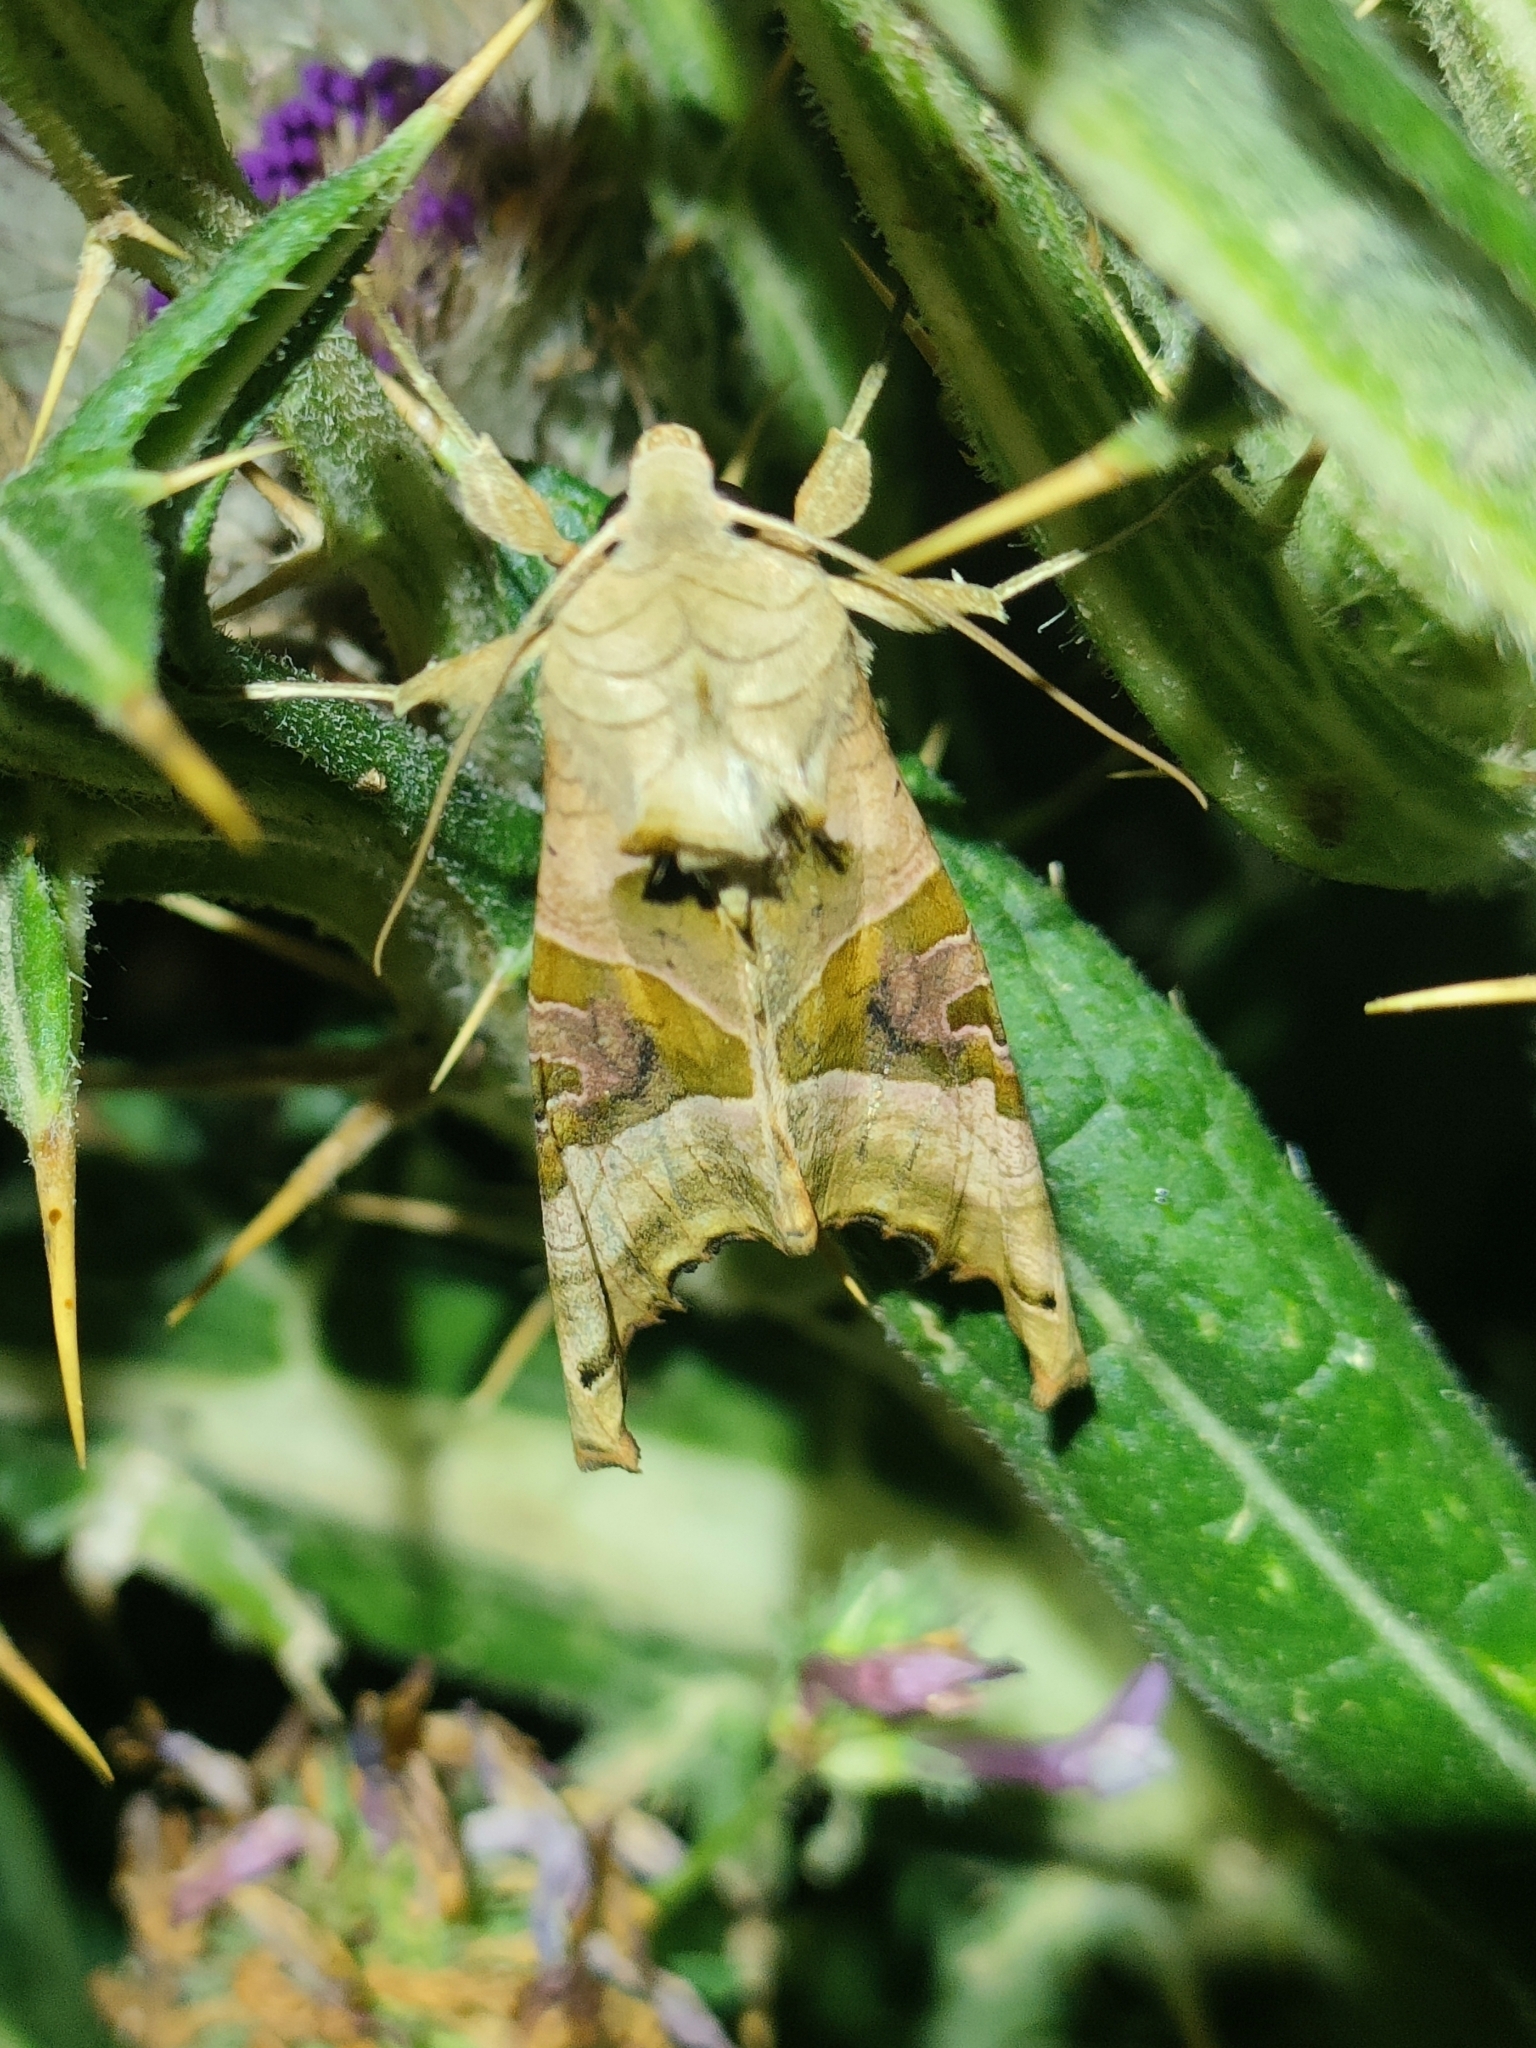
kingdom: Animalia
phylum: Arthropoda
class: Insecta
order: Lepidoptera
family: Noctuidae
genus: Phlogophora
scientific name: Phlogophora meticulosa
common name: Angle shades
